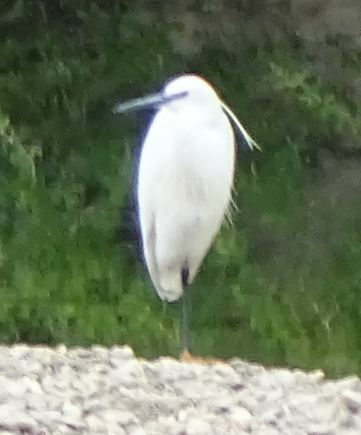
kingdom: Animalia
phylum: Chordata
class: Aves
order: Pelecaniformes
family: Ardeidae
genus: Egretta
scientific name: Egretta garzetta
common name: Little egret
